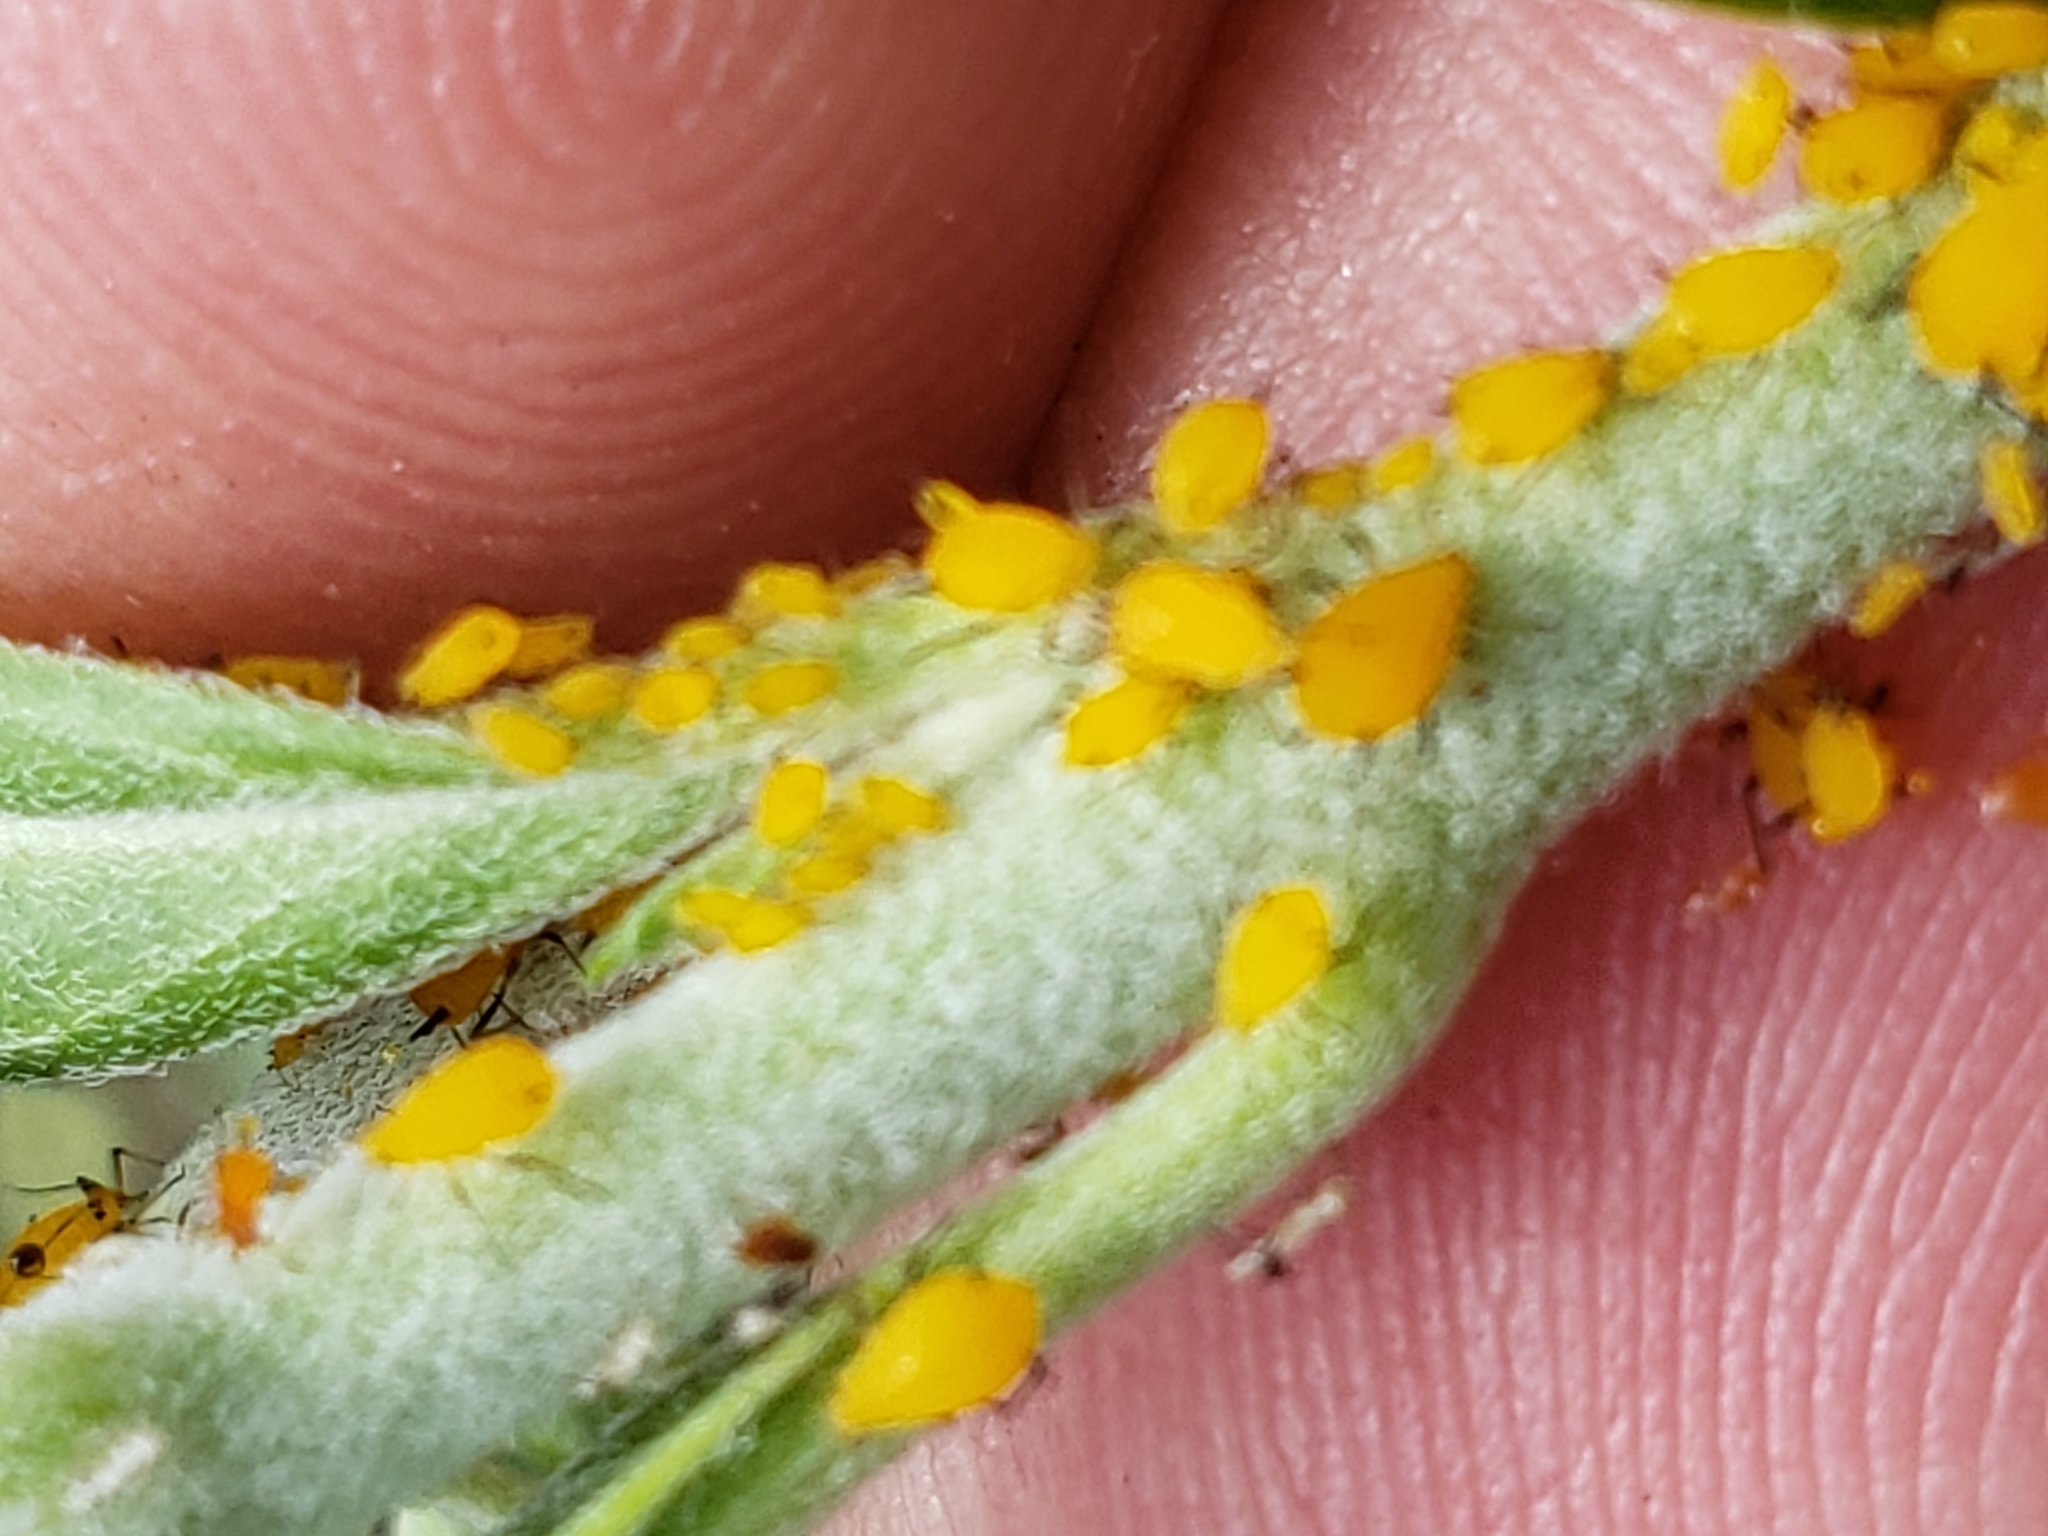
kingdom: Animalia
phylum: Arthropoda
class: Insecta
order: Hemiptera
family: Aphididae
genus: Aphis
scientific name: Aphis nerii
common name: Oleander aphid
